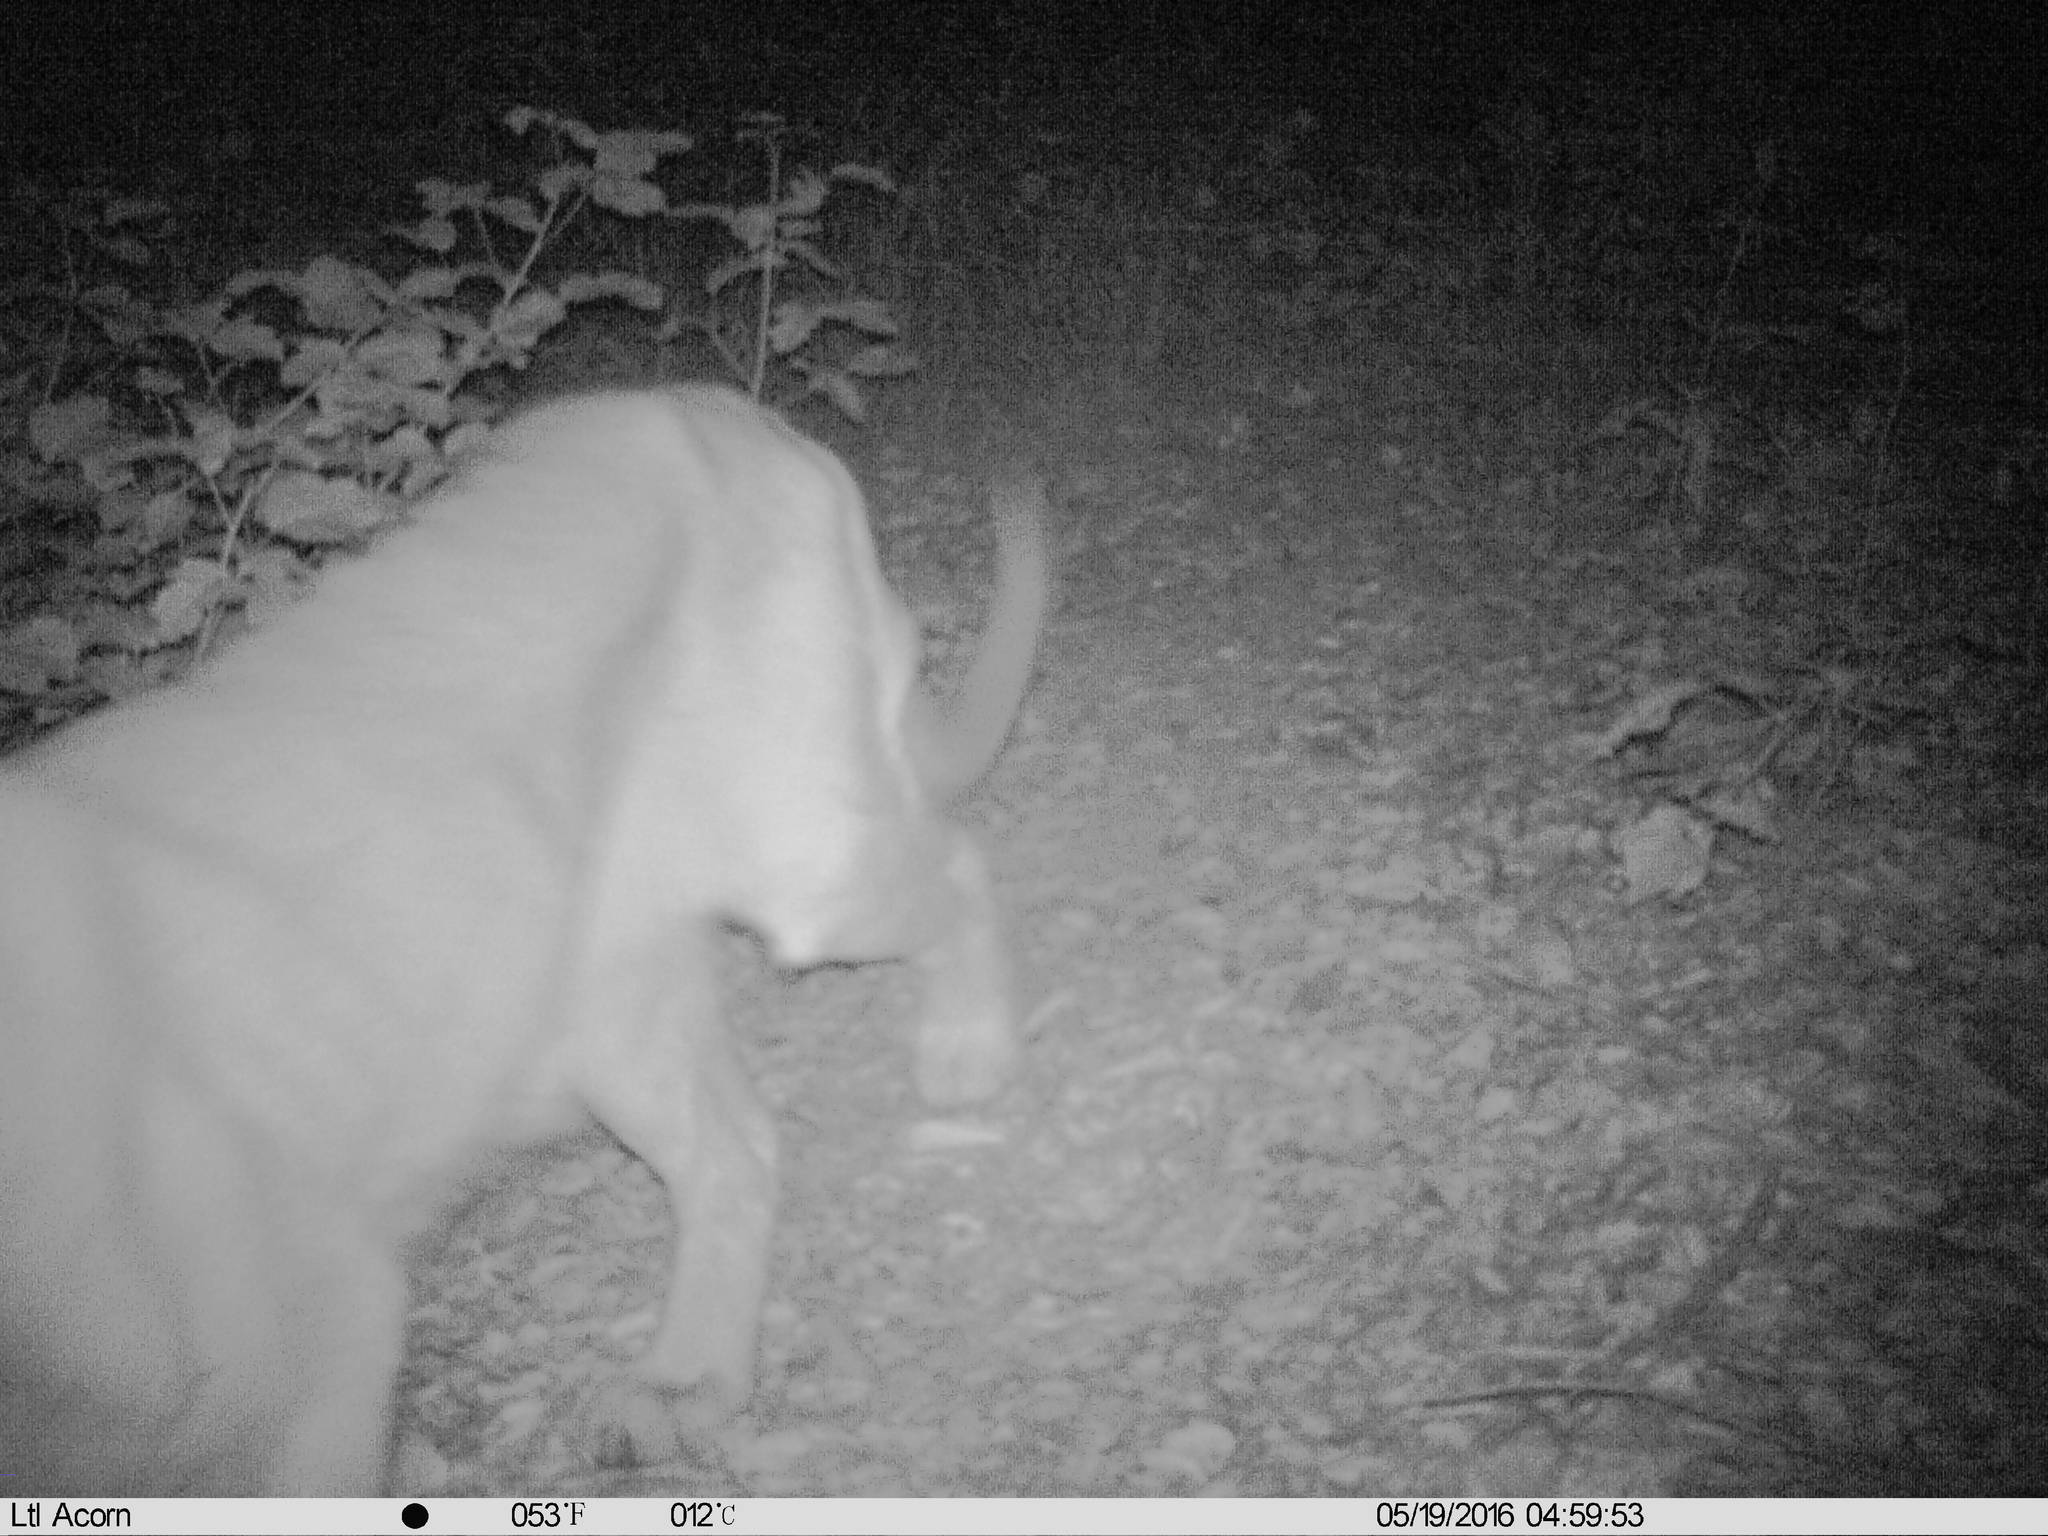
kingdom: Animalia
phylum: Chordata
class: Mammalia
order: Carnivora
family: Felidae
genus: Puma
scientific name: Puma concolor
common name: Puma
